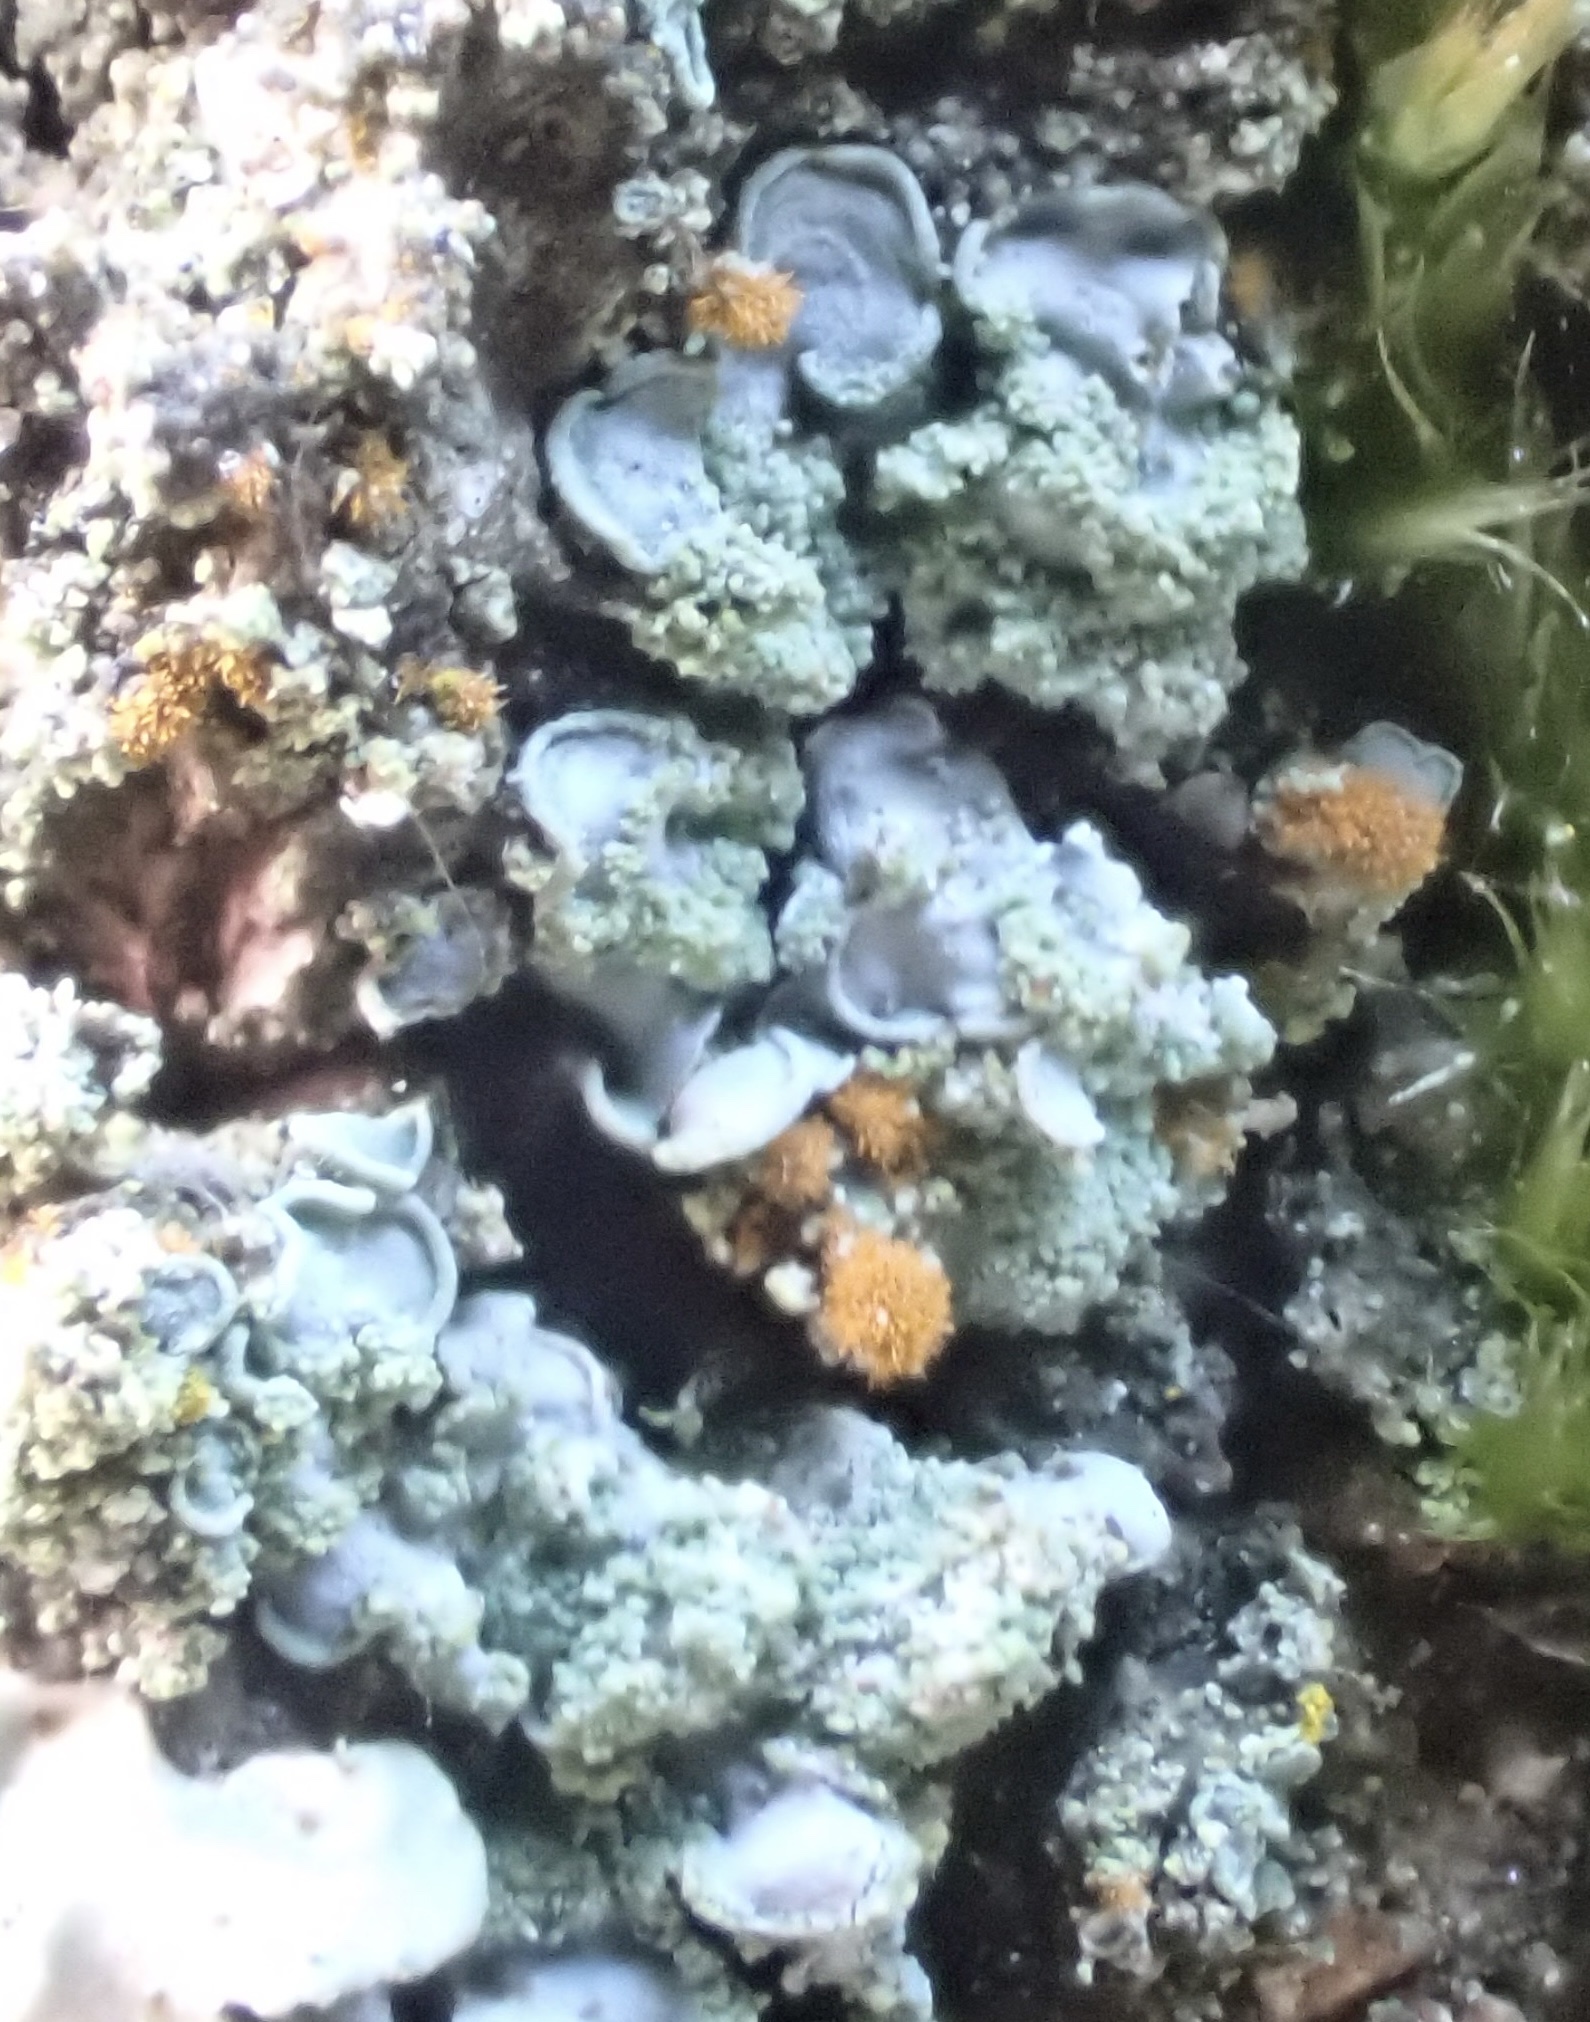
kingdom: Fungi
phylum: Ascomycota
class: Eurotiomycetes
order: Verrucariales
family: Verrucariaceae
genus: Normandina
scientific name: Normandina pulchella
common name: Elf ears lichen
